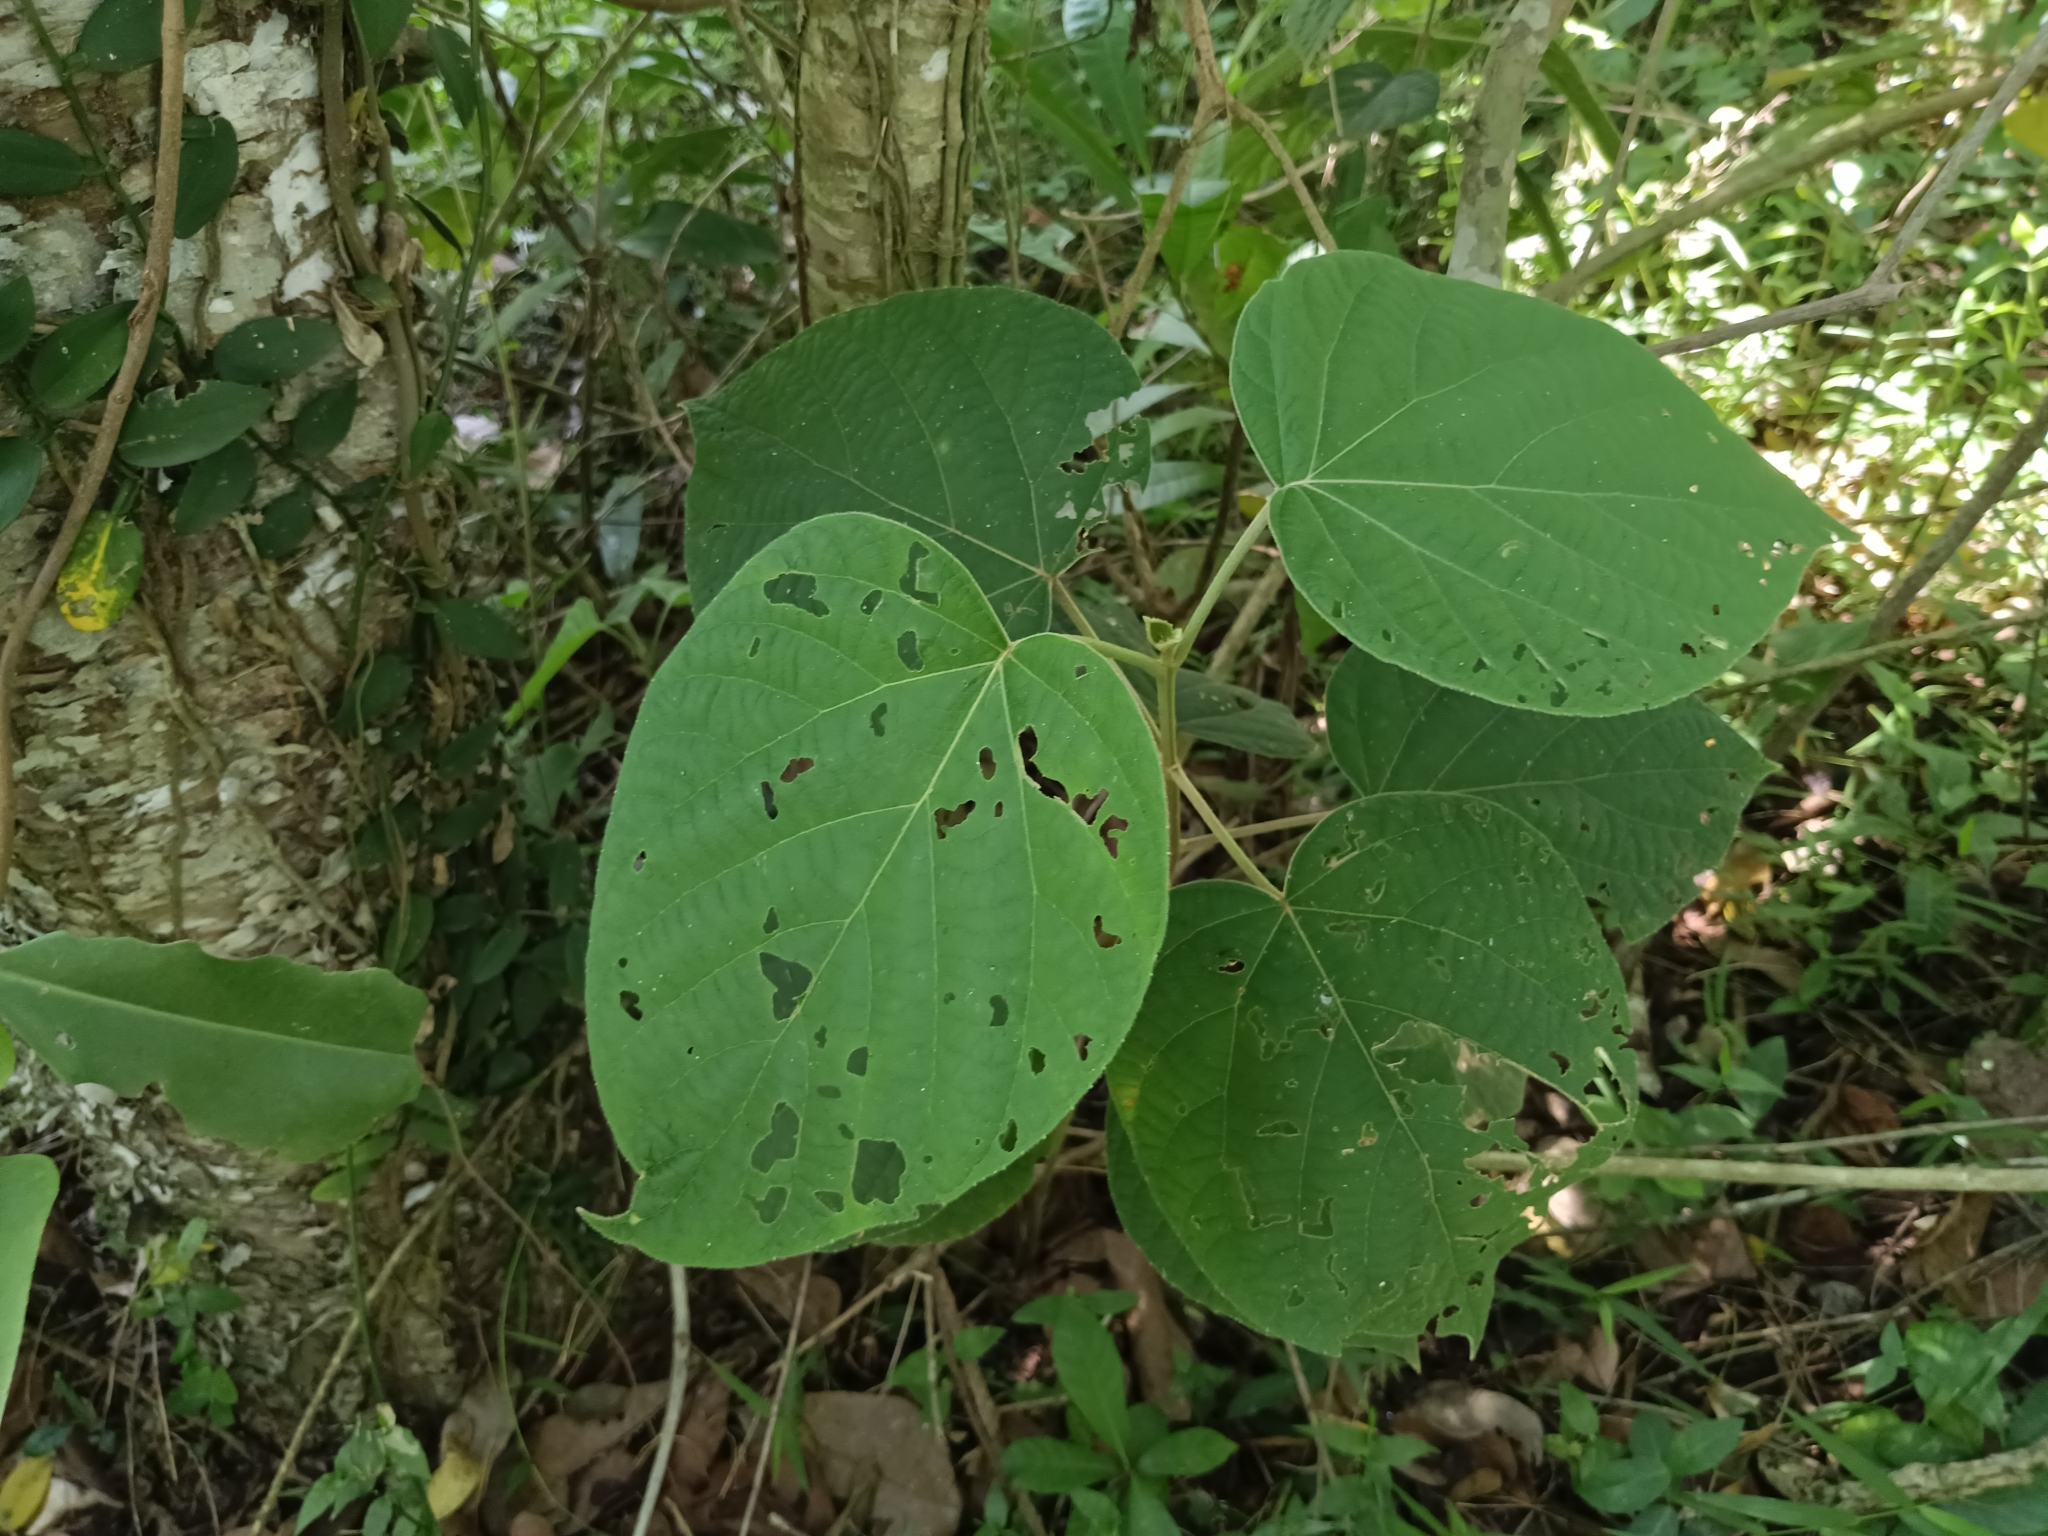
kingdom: Plantae
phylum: Tracheophyta
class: Magnoliopsida
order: Lamiales
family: Lamiaceae
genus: Clerodendrum
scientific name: Clerodendrum infortunatum
